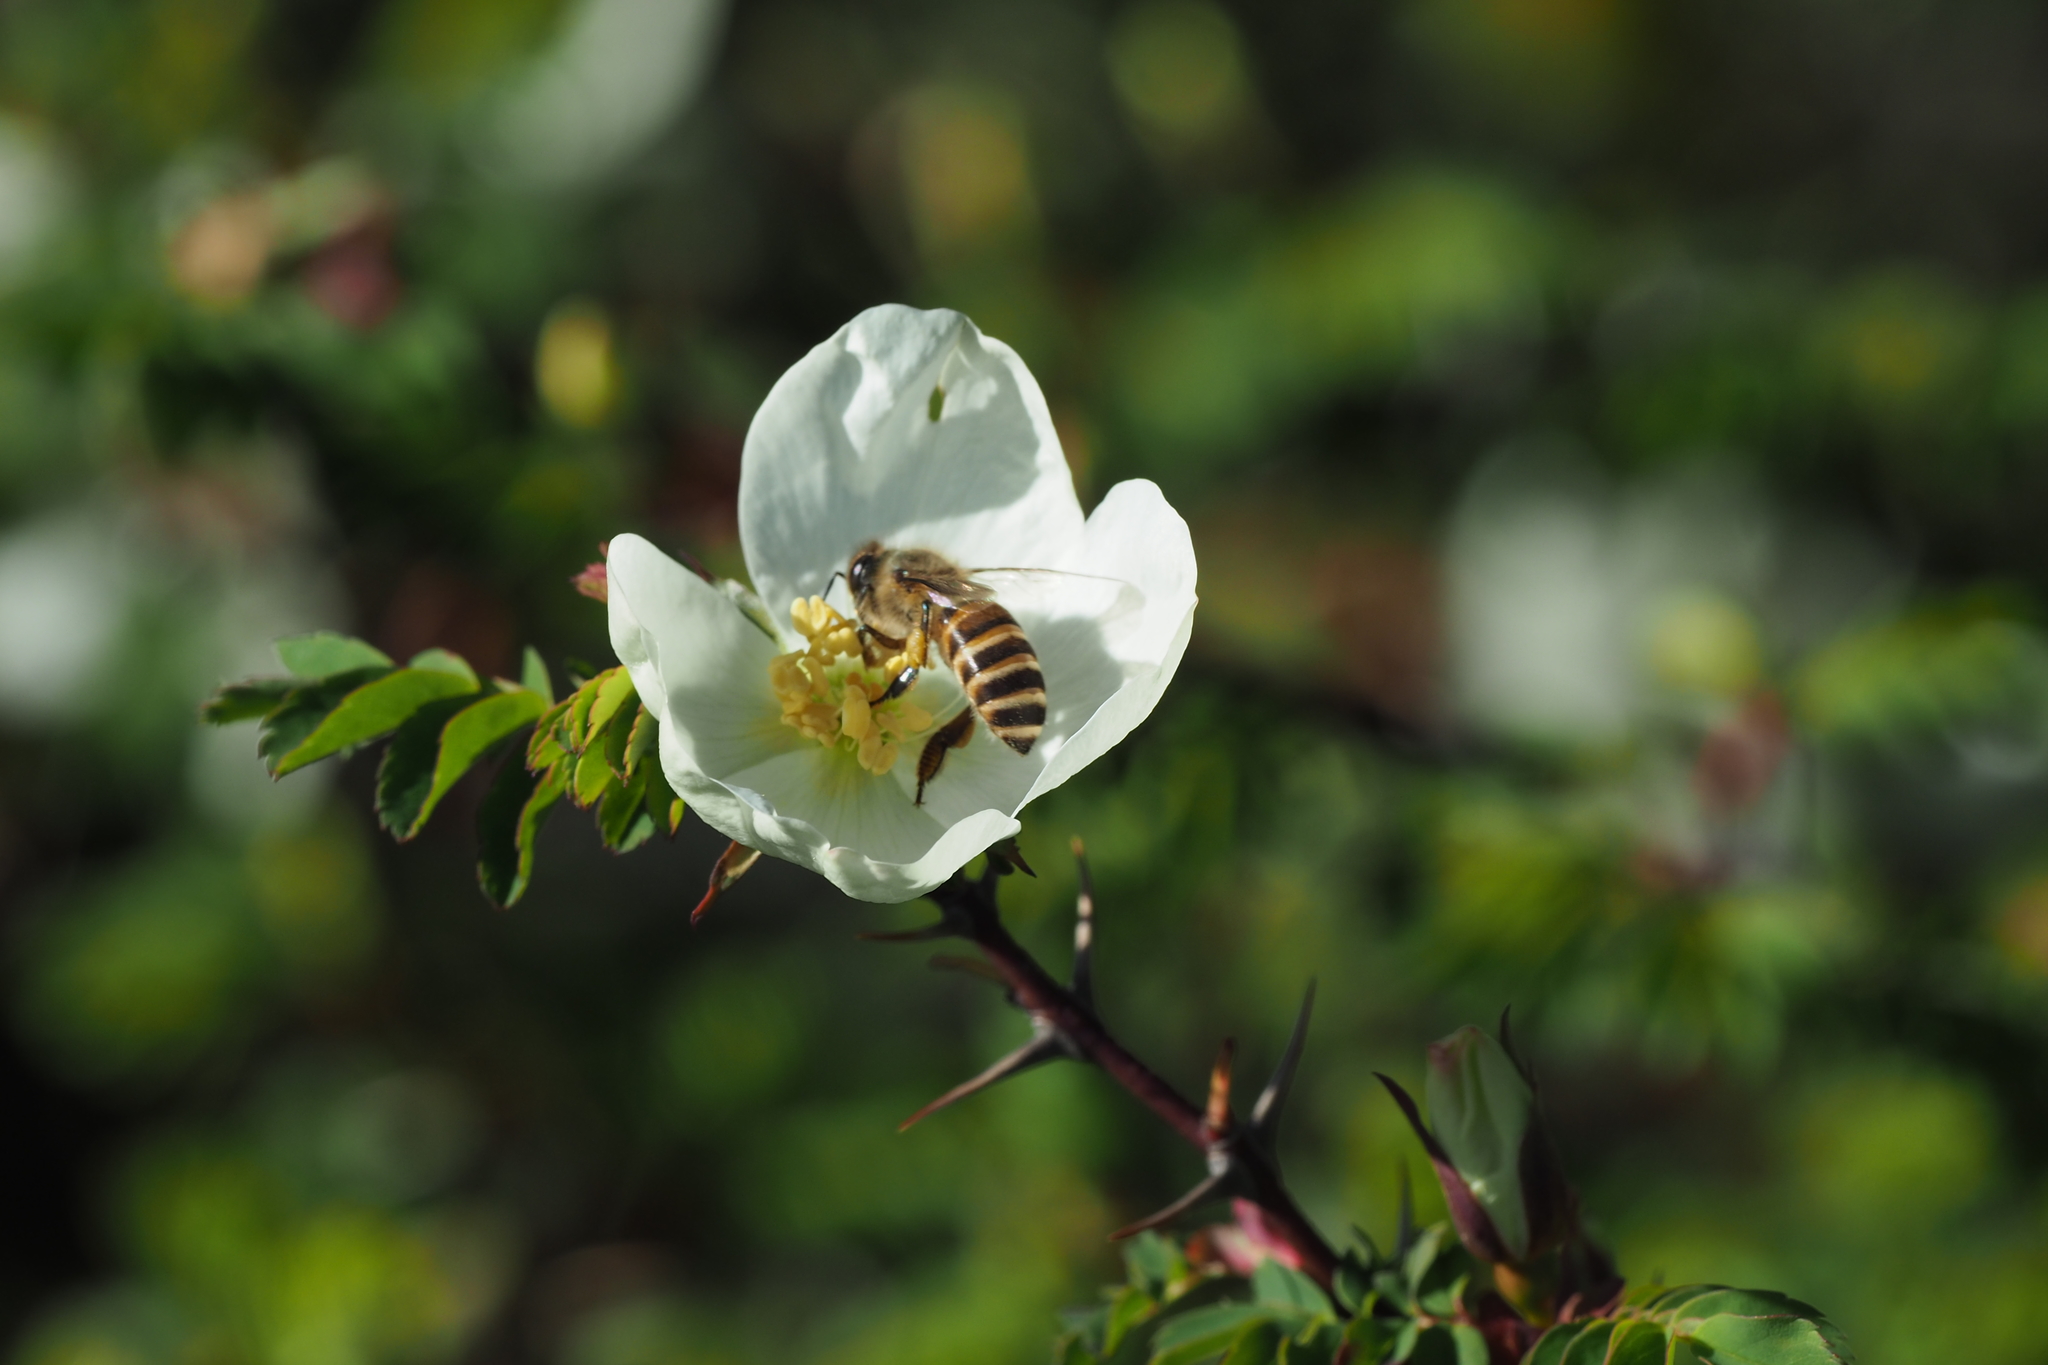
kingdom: Animalia
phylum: Arthropoda
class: Insecta
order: Hymenoptera
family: Apidae
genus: Apis
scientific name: Apis cerana
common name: Honey bee
